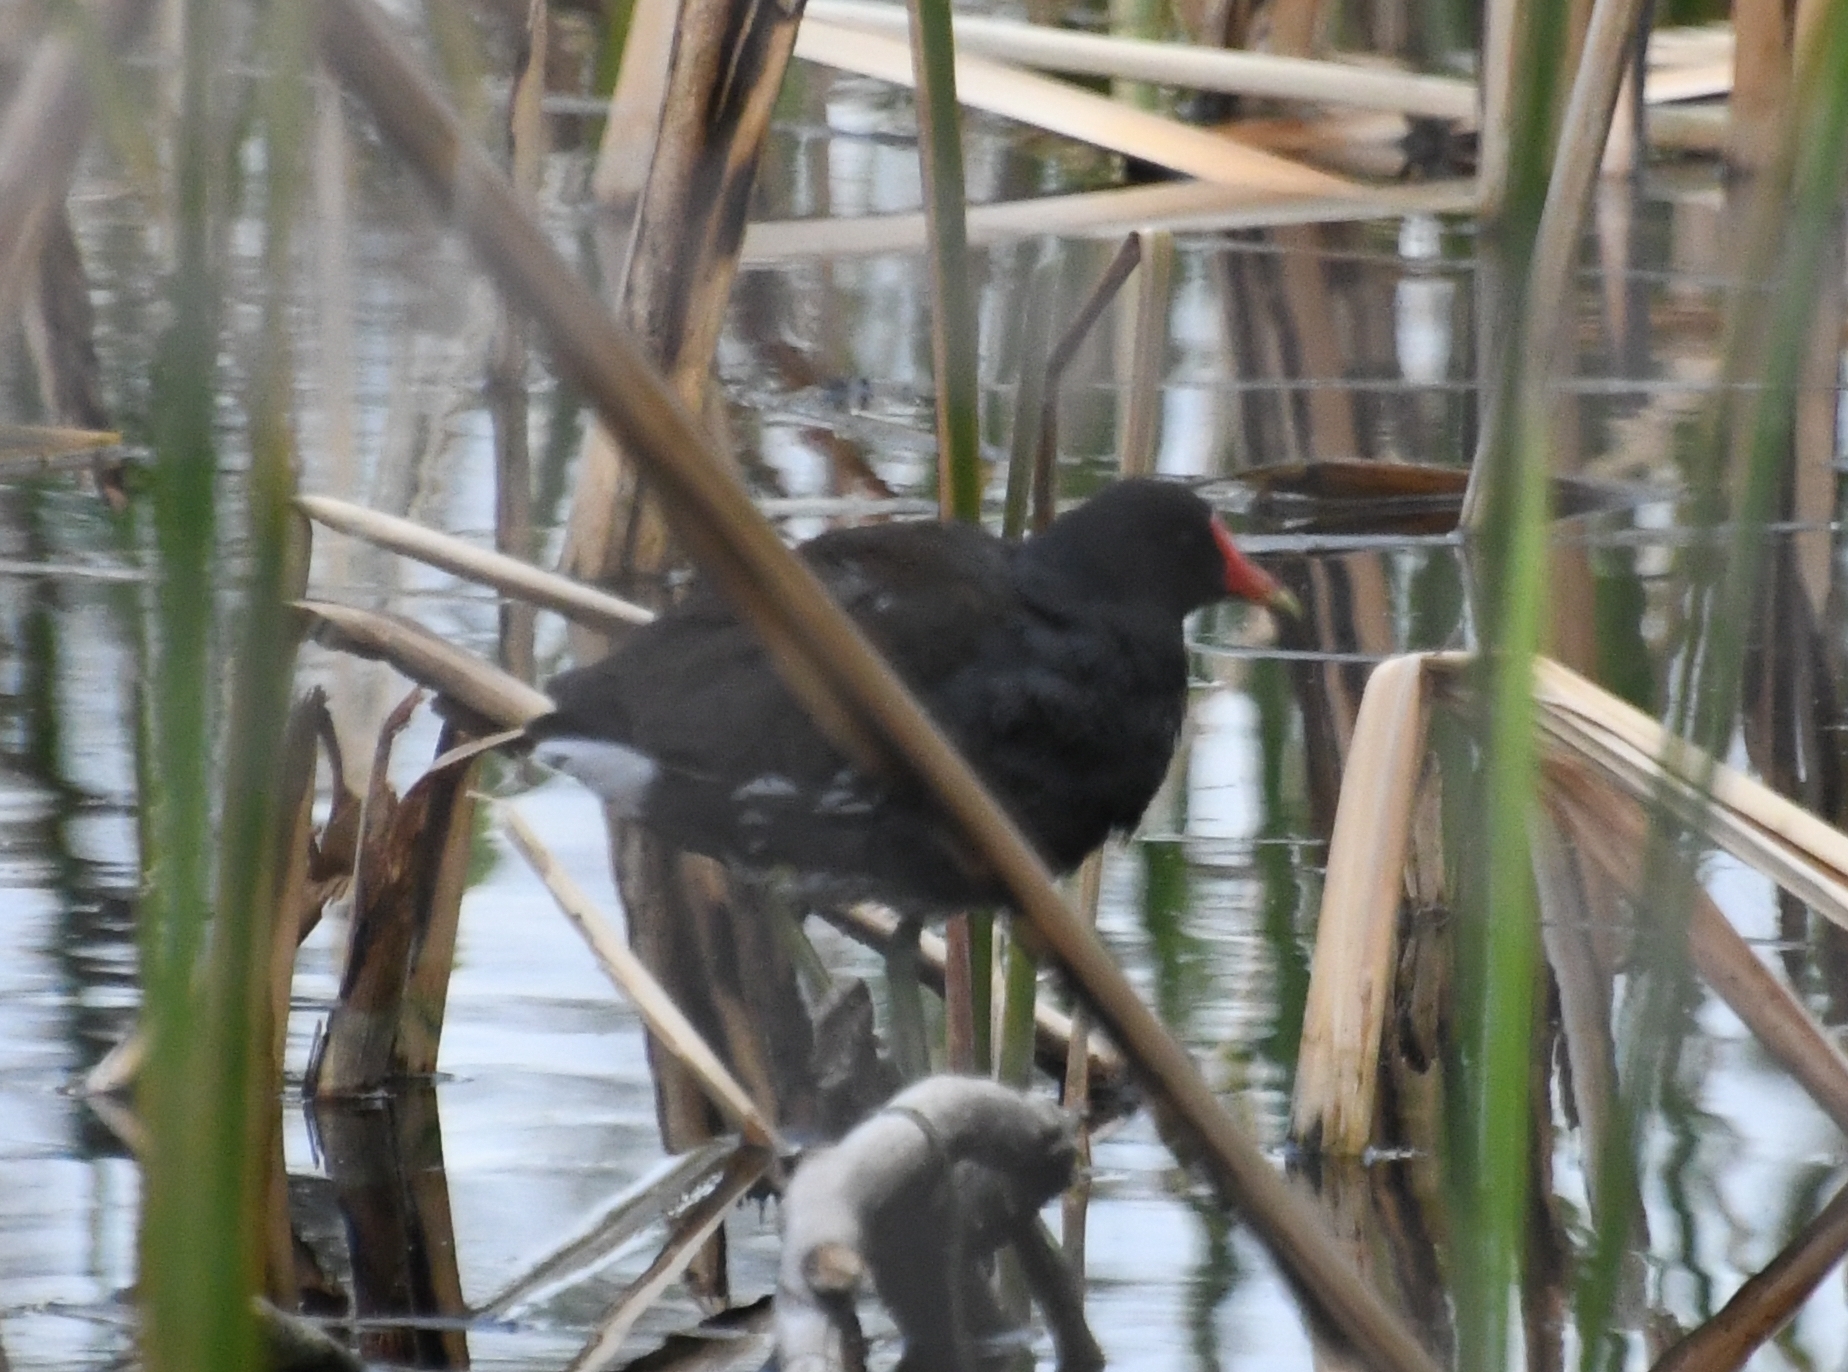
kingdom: Animalia
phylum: Chordata
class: Aves
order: Gruiformes
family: Rallidae
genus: Gallinula
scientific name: Gallinula chloropus
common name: Common moorhen
